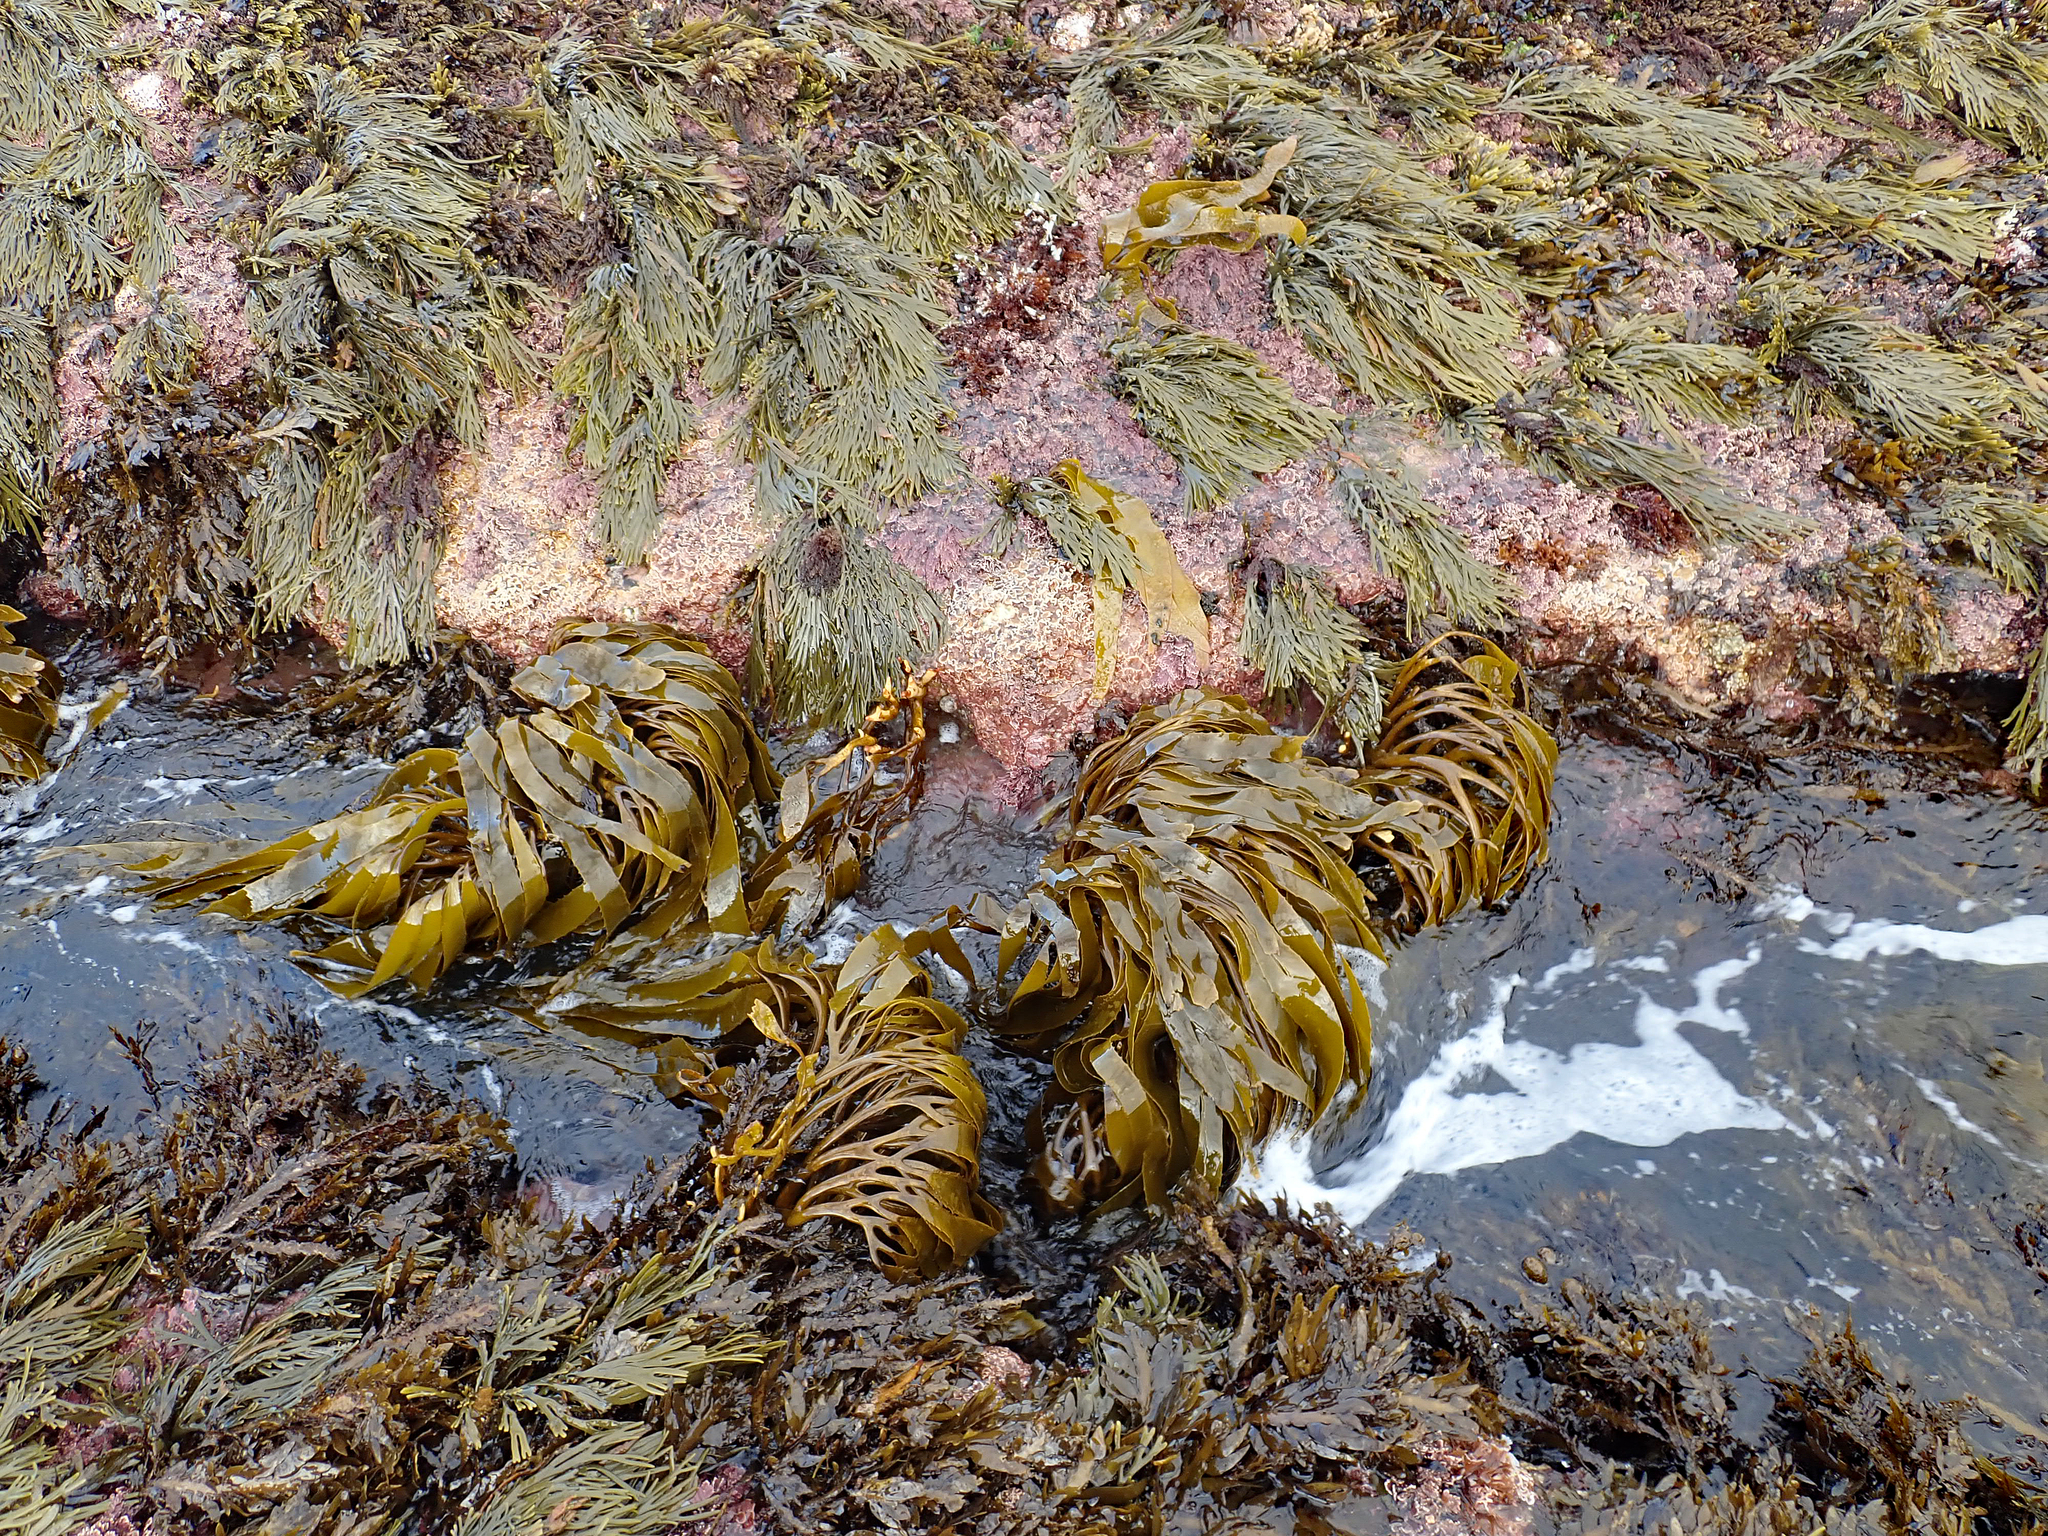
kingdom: Chromista
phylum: Ochrophyta
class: Phaeophyceae
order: Laminariales
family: Lessoniaceae
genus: Lessonia
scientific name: Lessonia tholiformis
